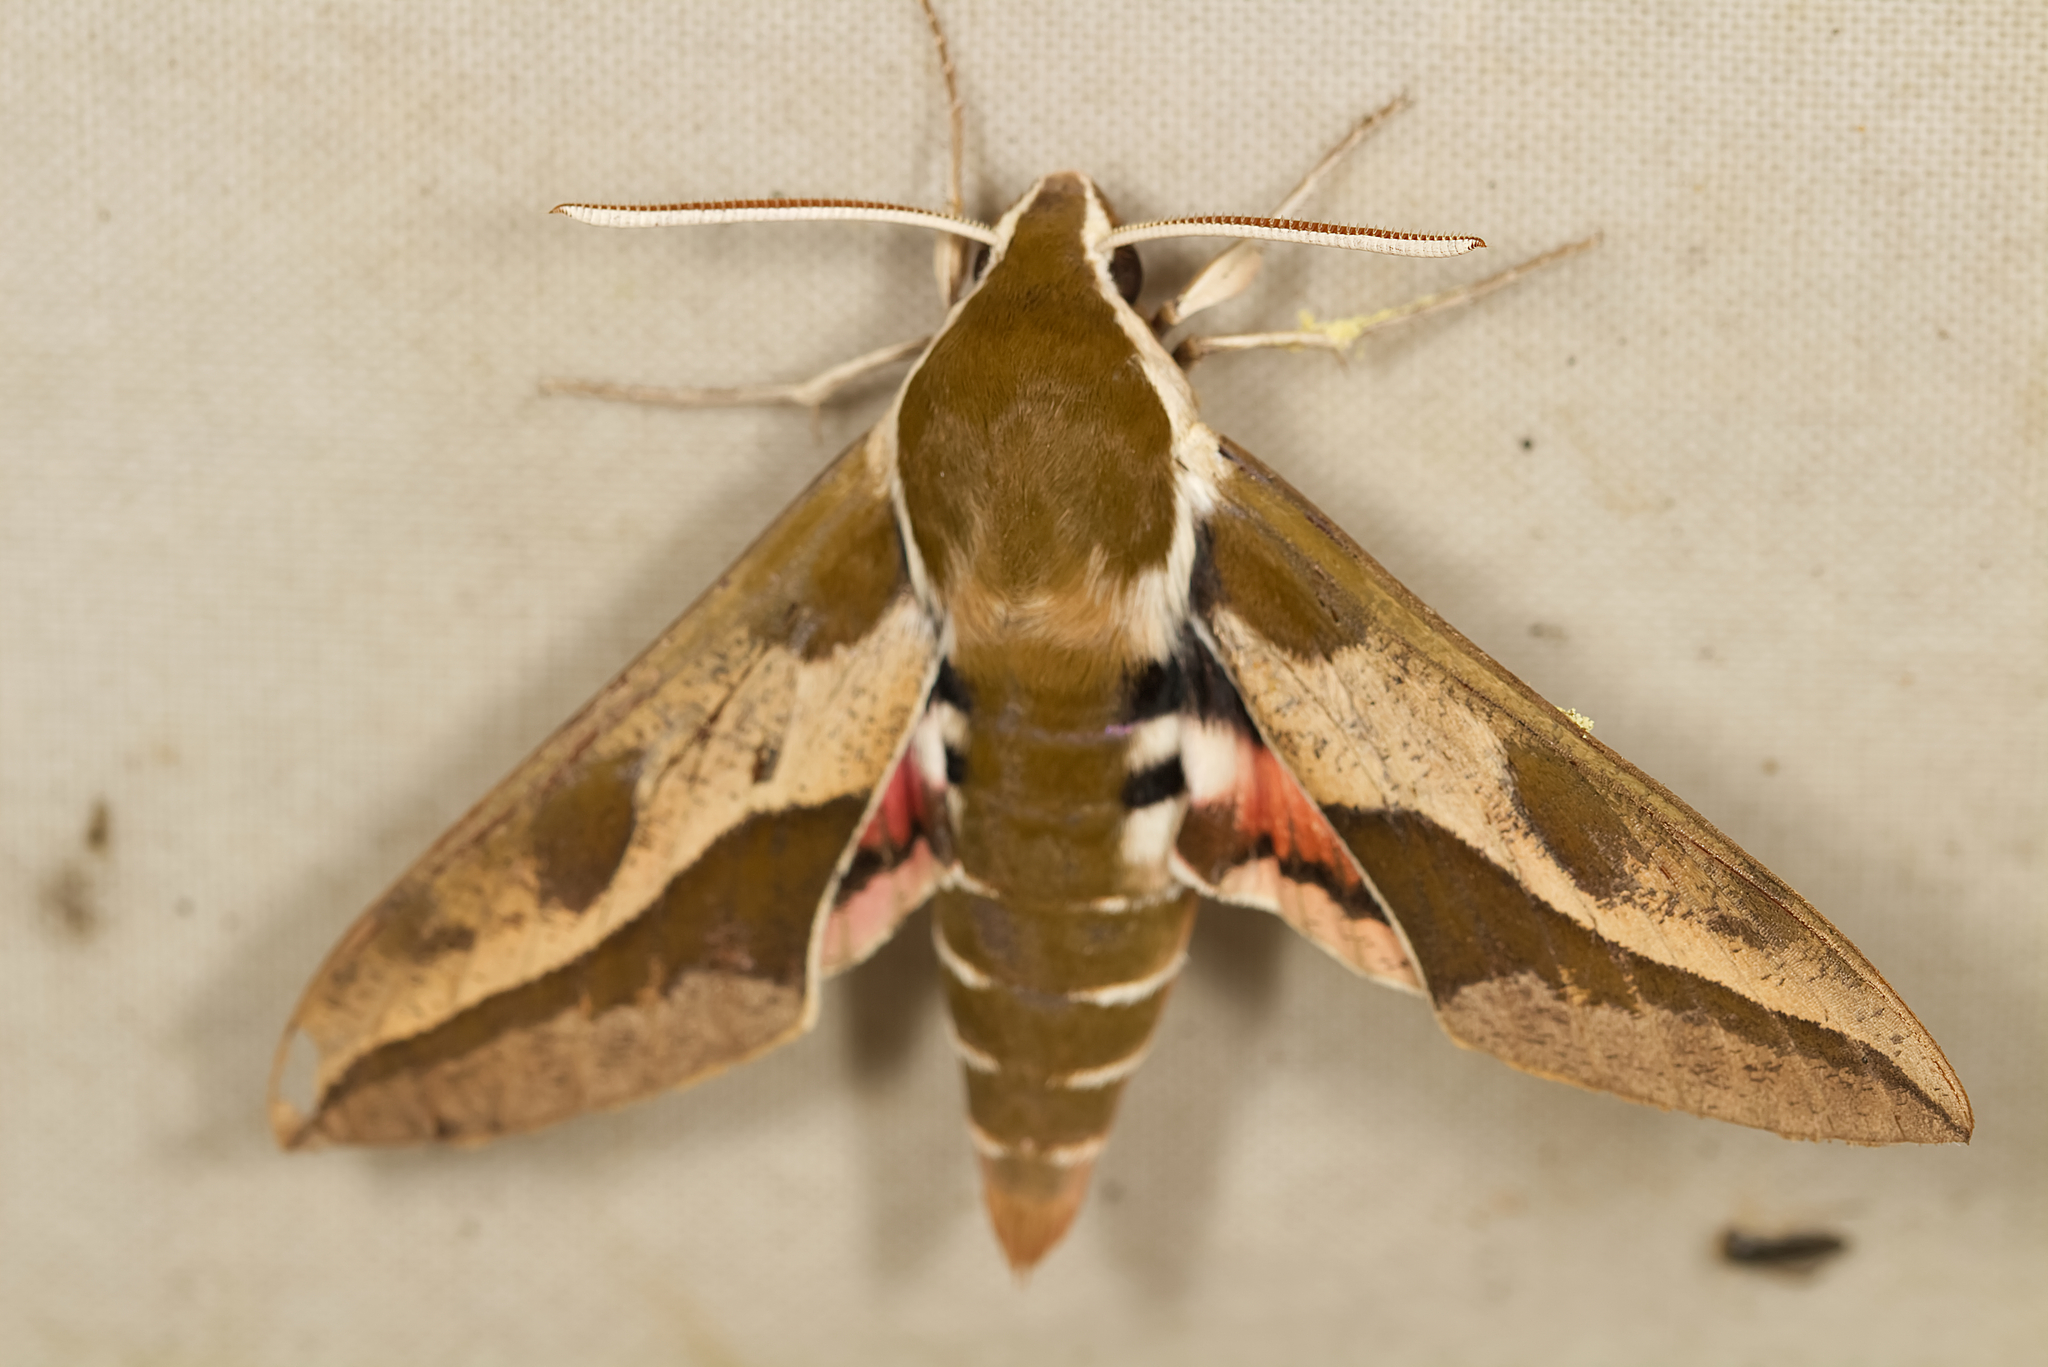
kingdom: Animalia
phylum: Arthropoda
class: Insecta
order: Lepidoptera
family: Sphingidae
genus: Hyles
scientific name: Hyles euphorbiae
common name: Spurge hawk-moth
